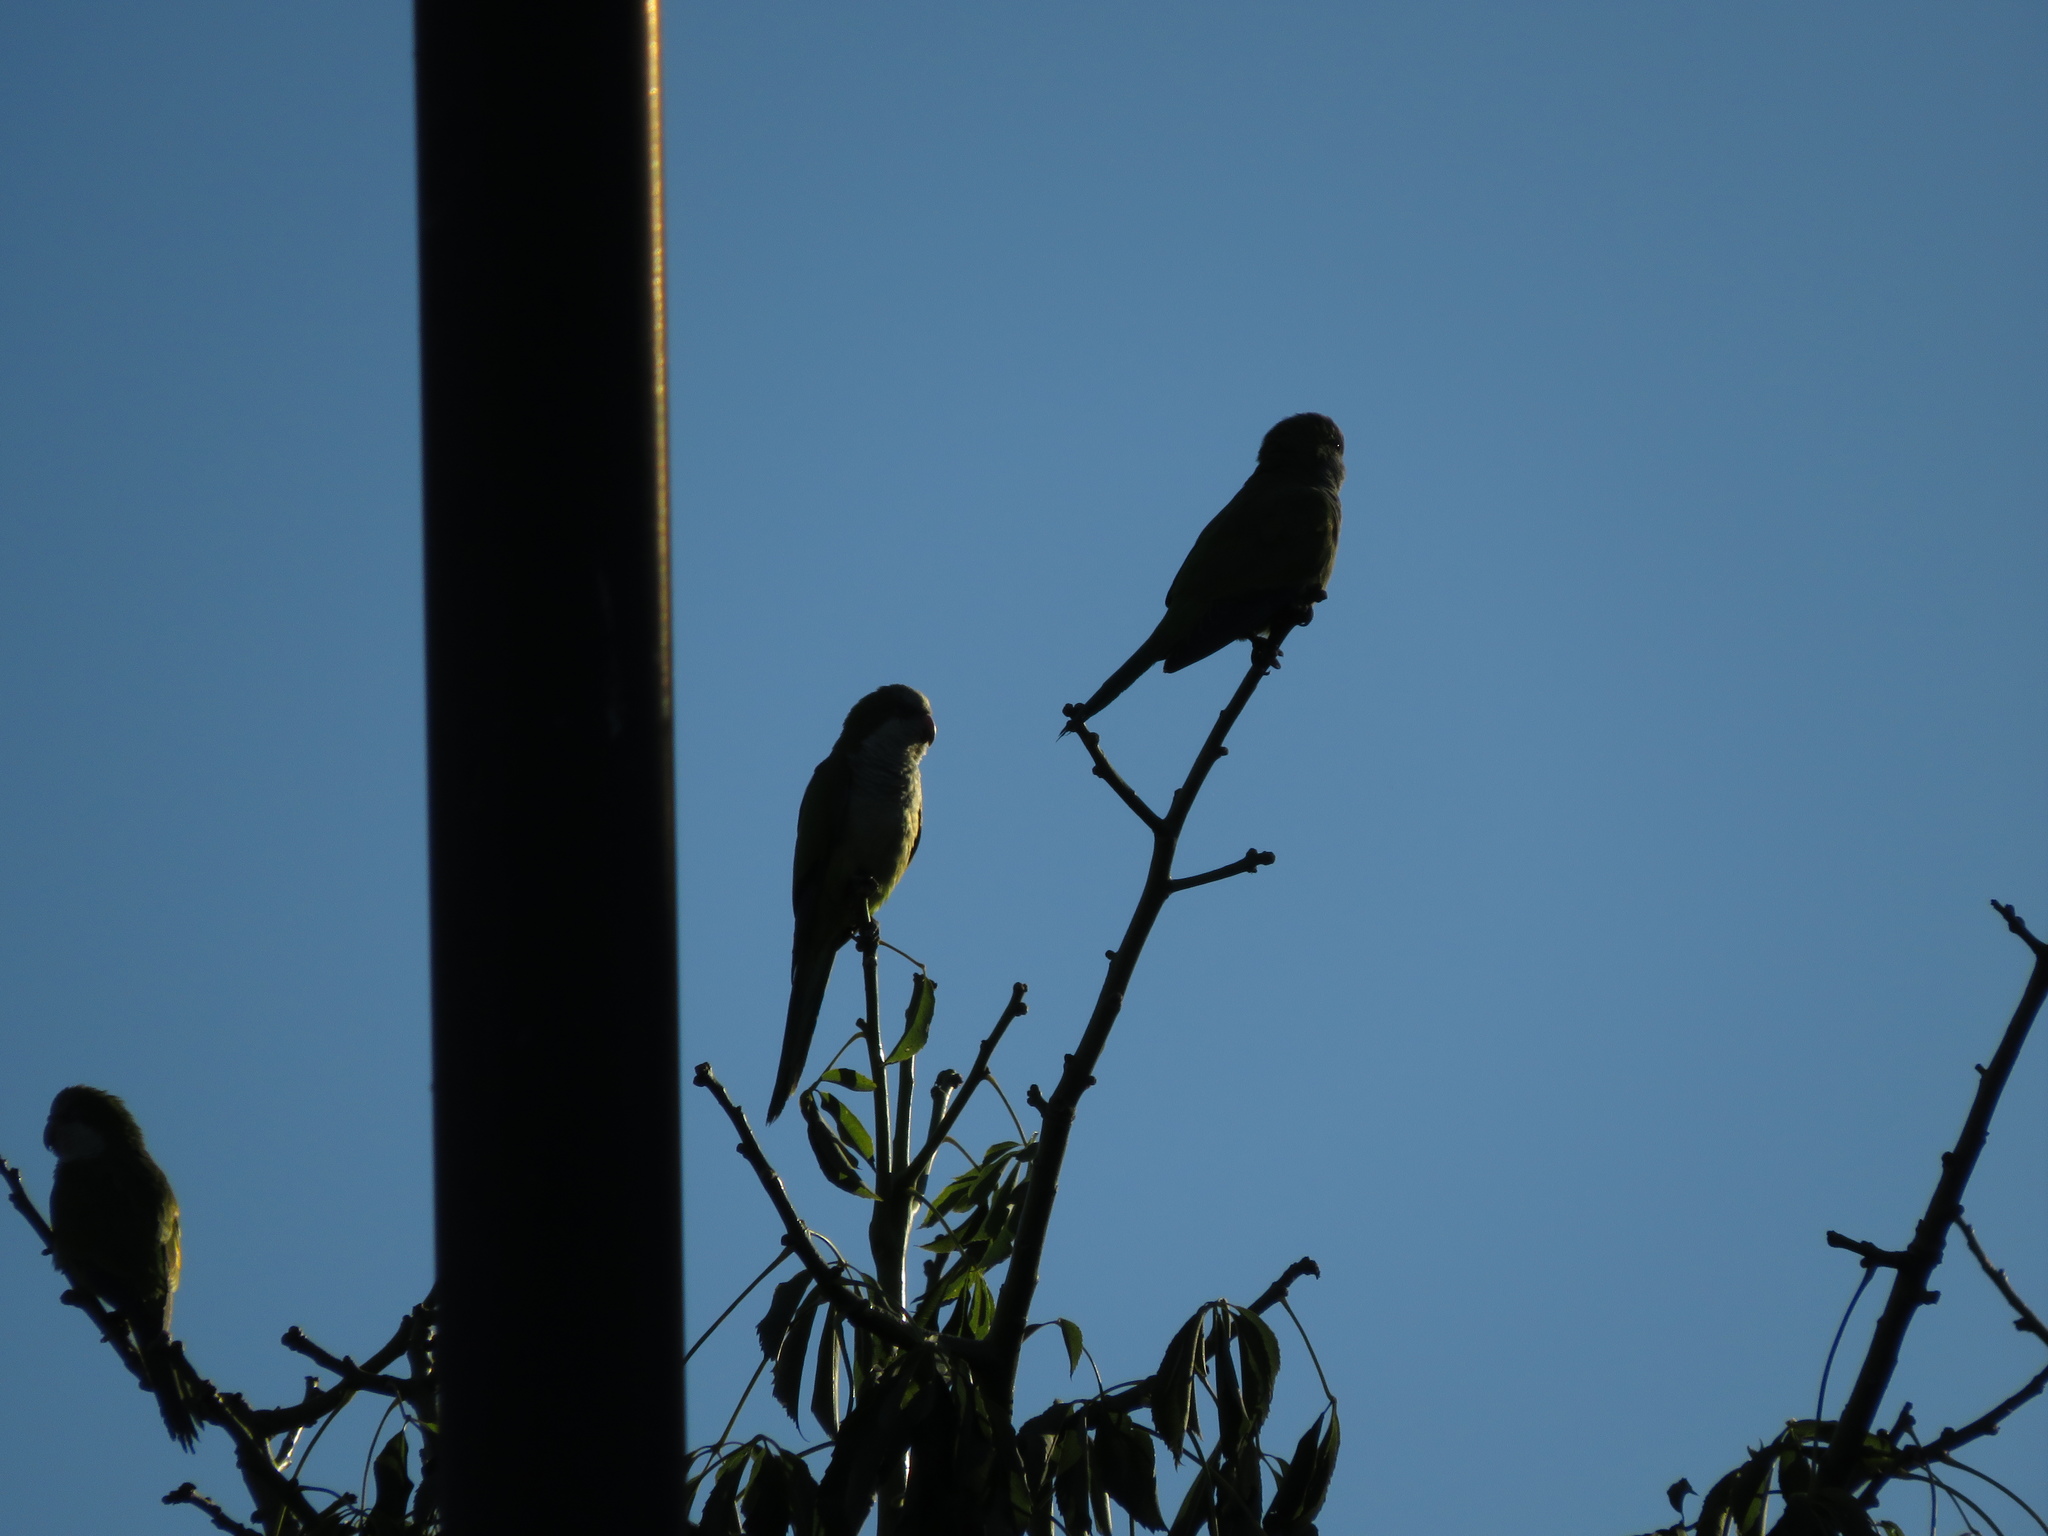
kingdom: Animalia
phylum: Chordata
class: Aves
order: Psittaciformes
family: Psittacidae
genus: Myiopsitta
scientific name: Myiopsitta monachus
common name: Monk parakeet
